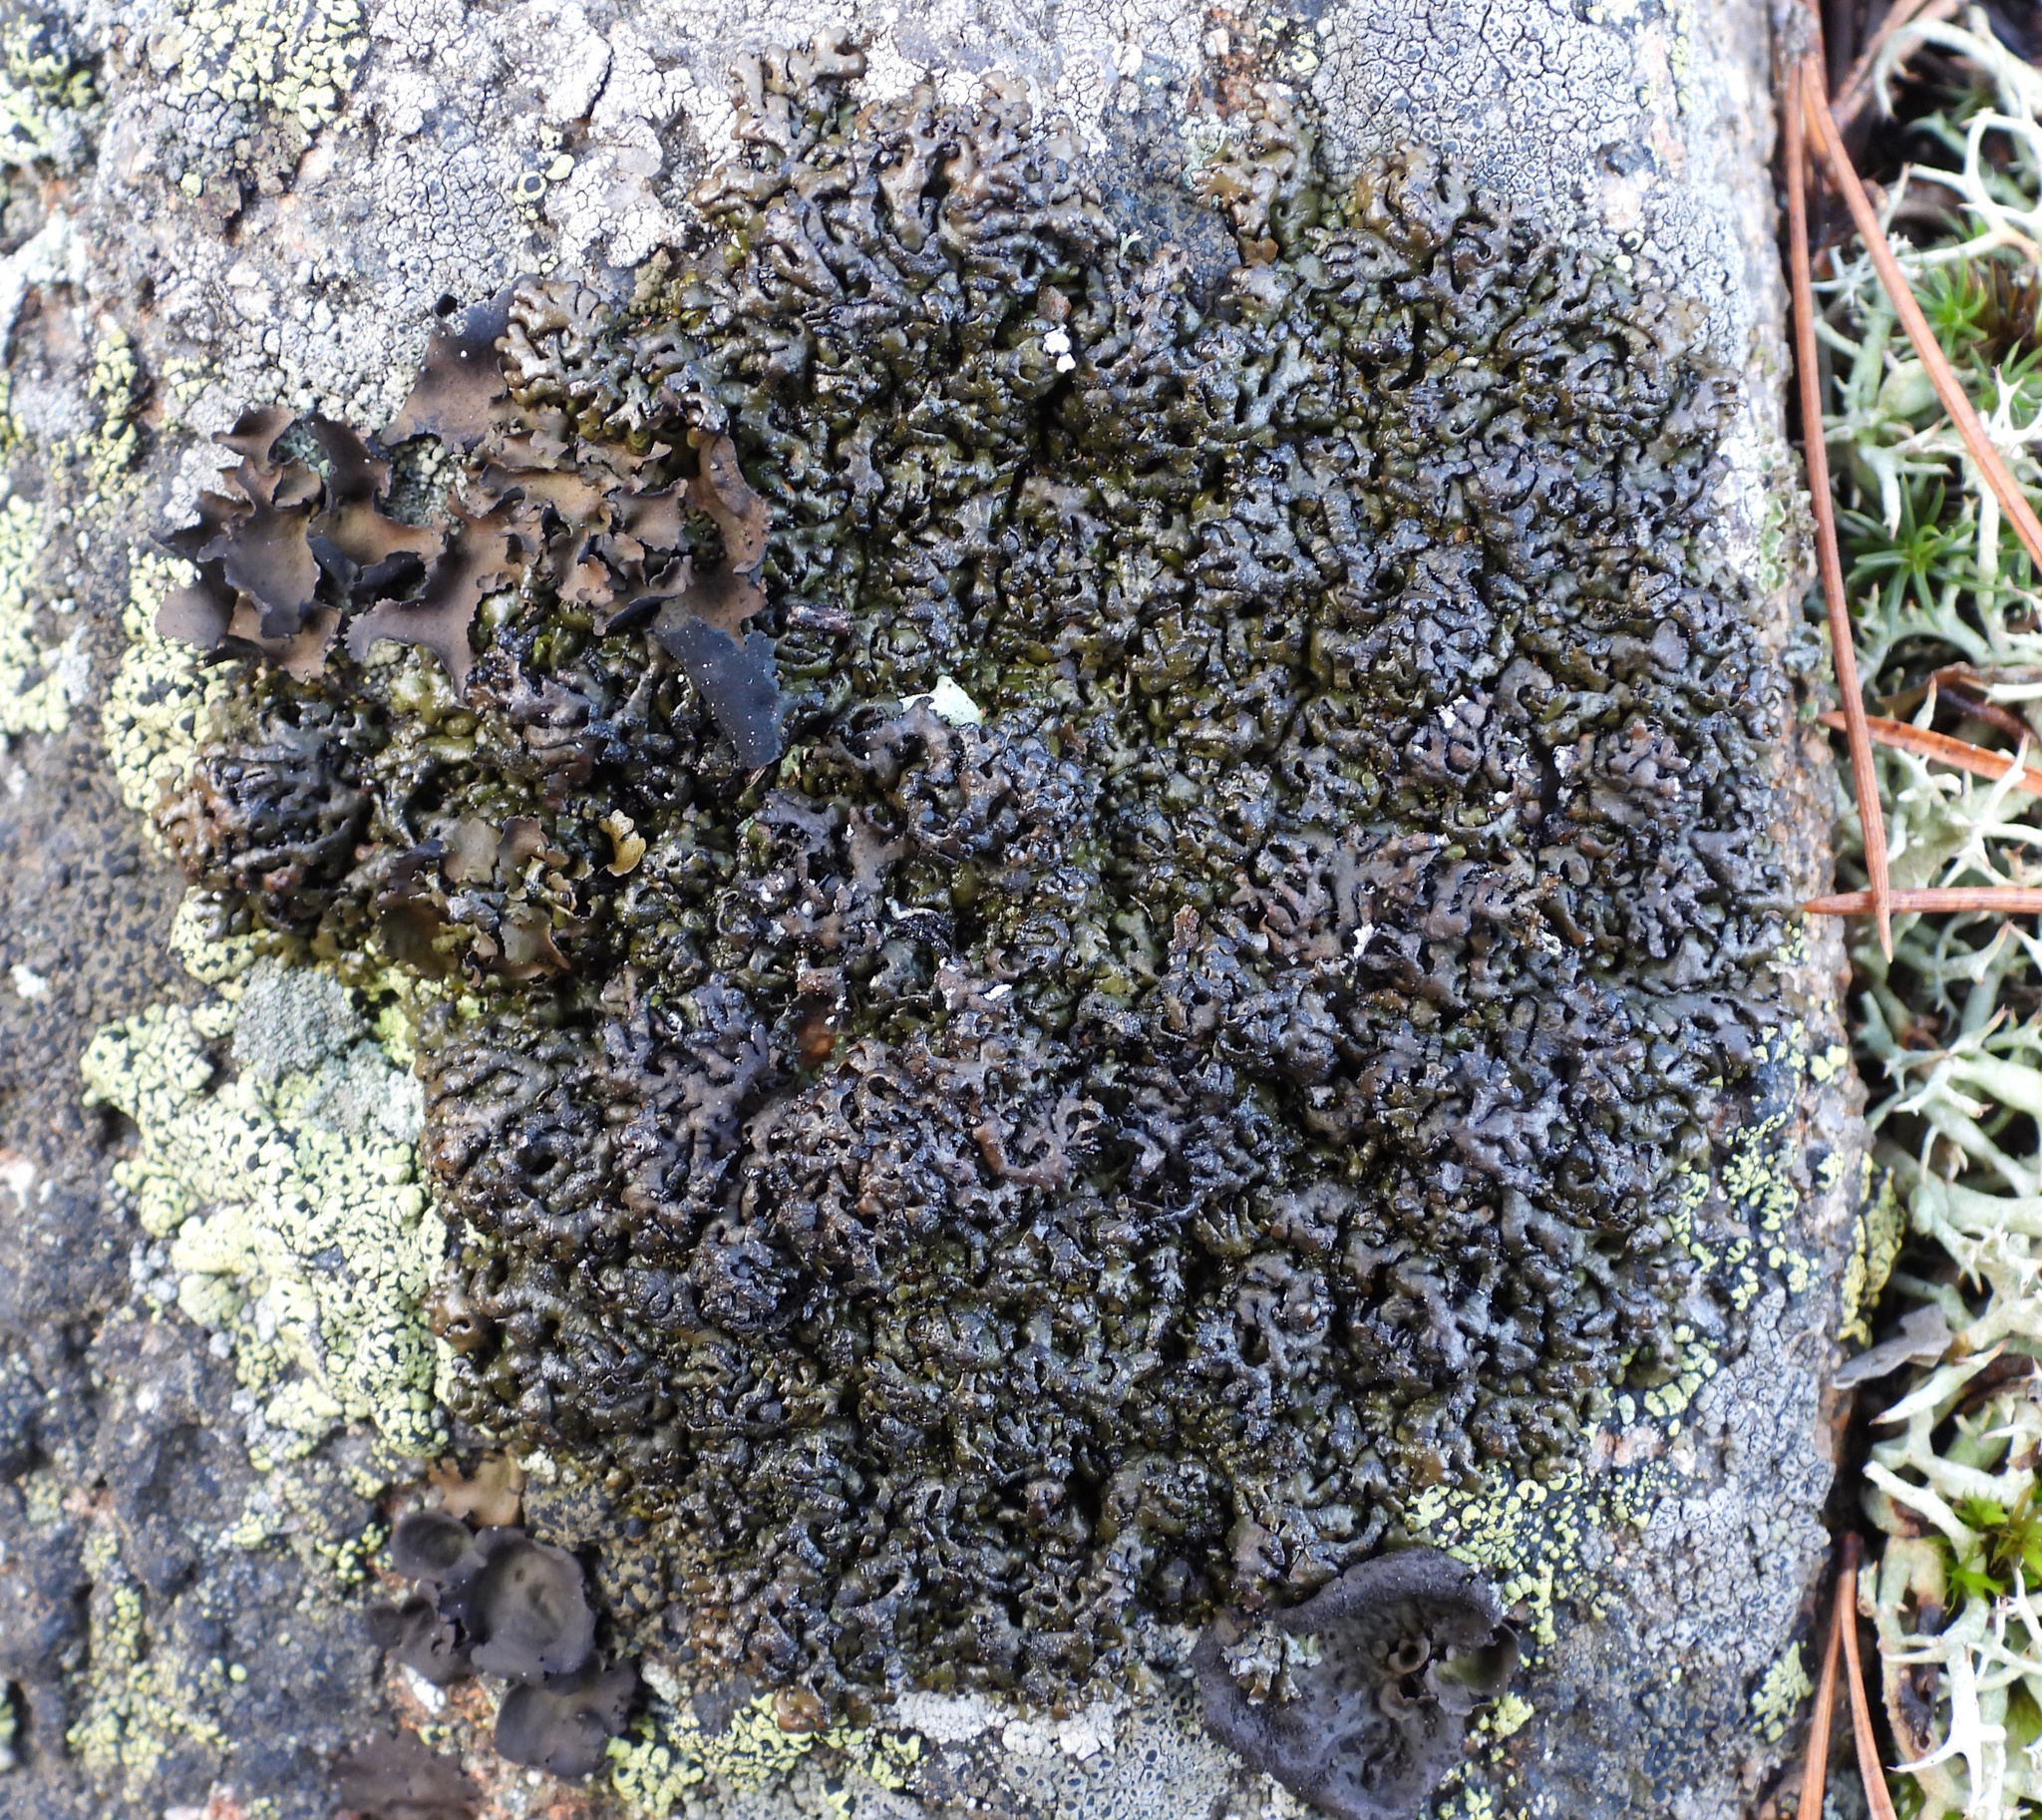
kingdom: Fungi
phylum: Ascomycota
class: Lecanoromycetes
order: Lecanorales
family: Parmeliaceae
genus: Melanelia
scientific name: Melanelia stygia
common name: Alpine camouflage lichen
